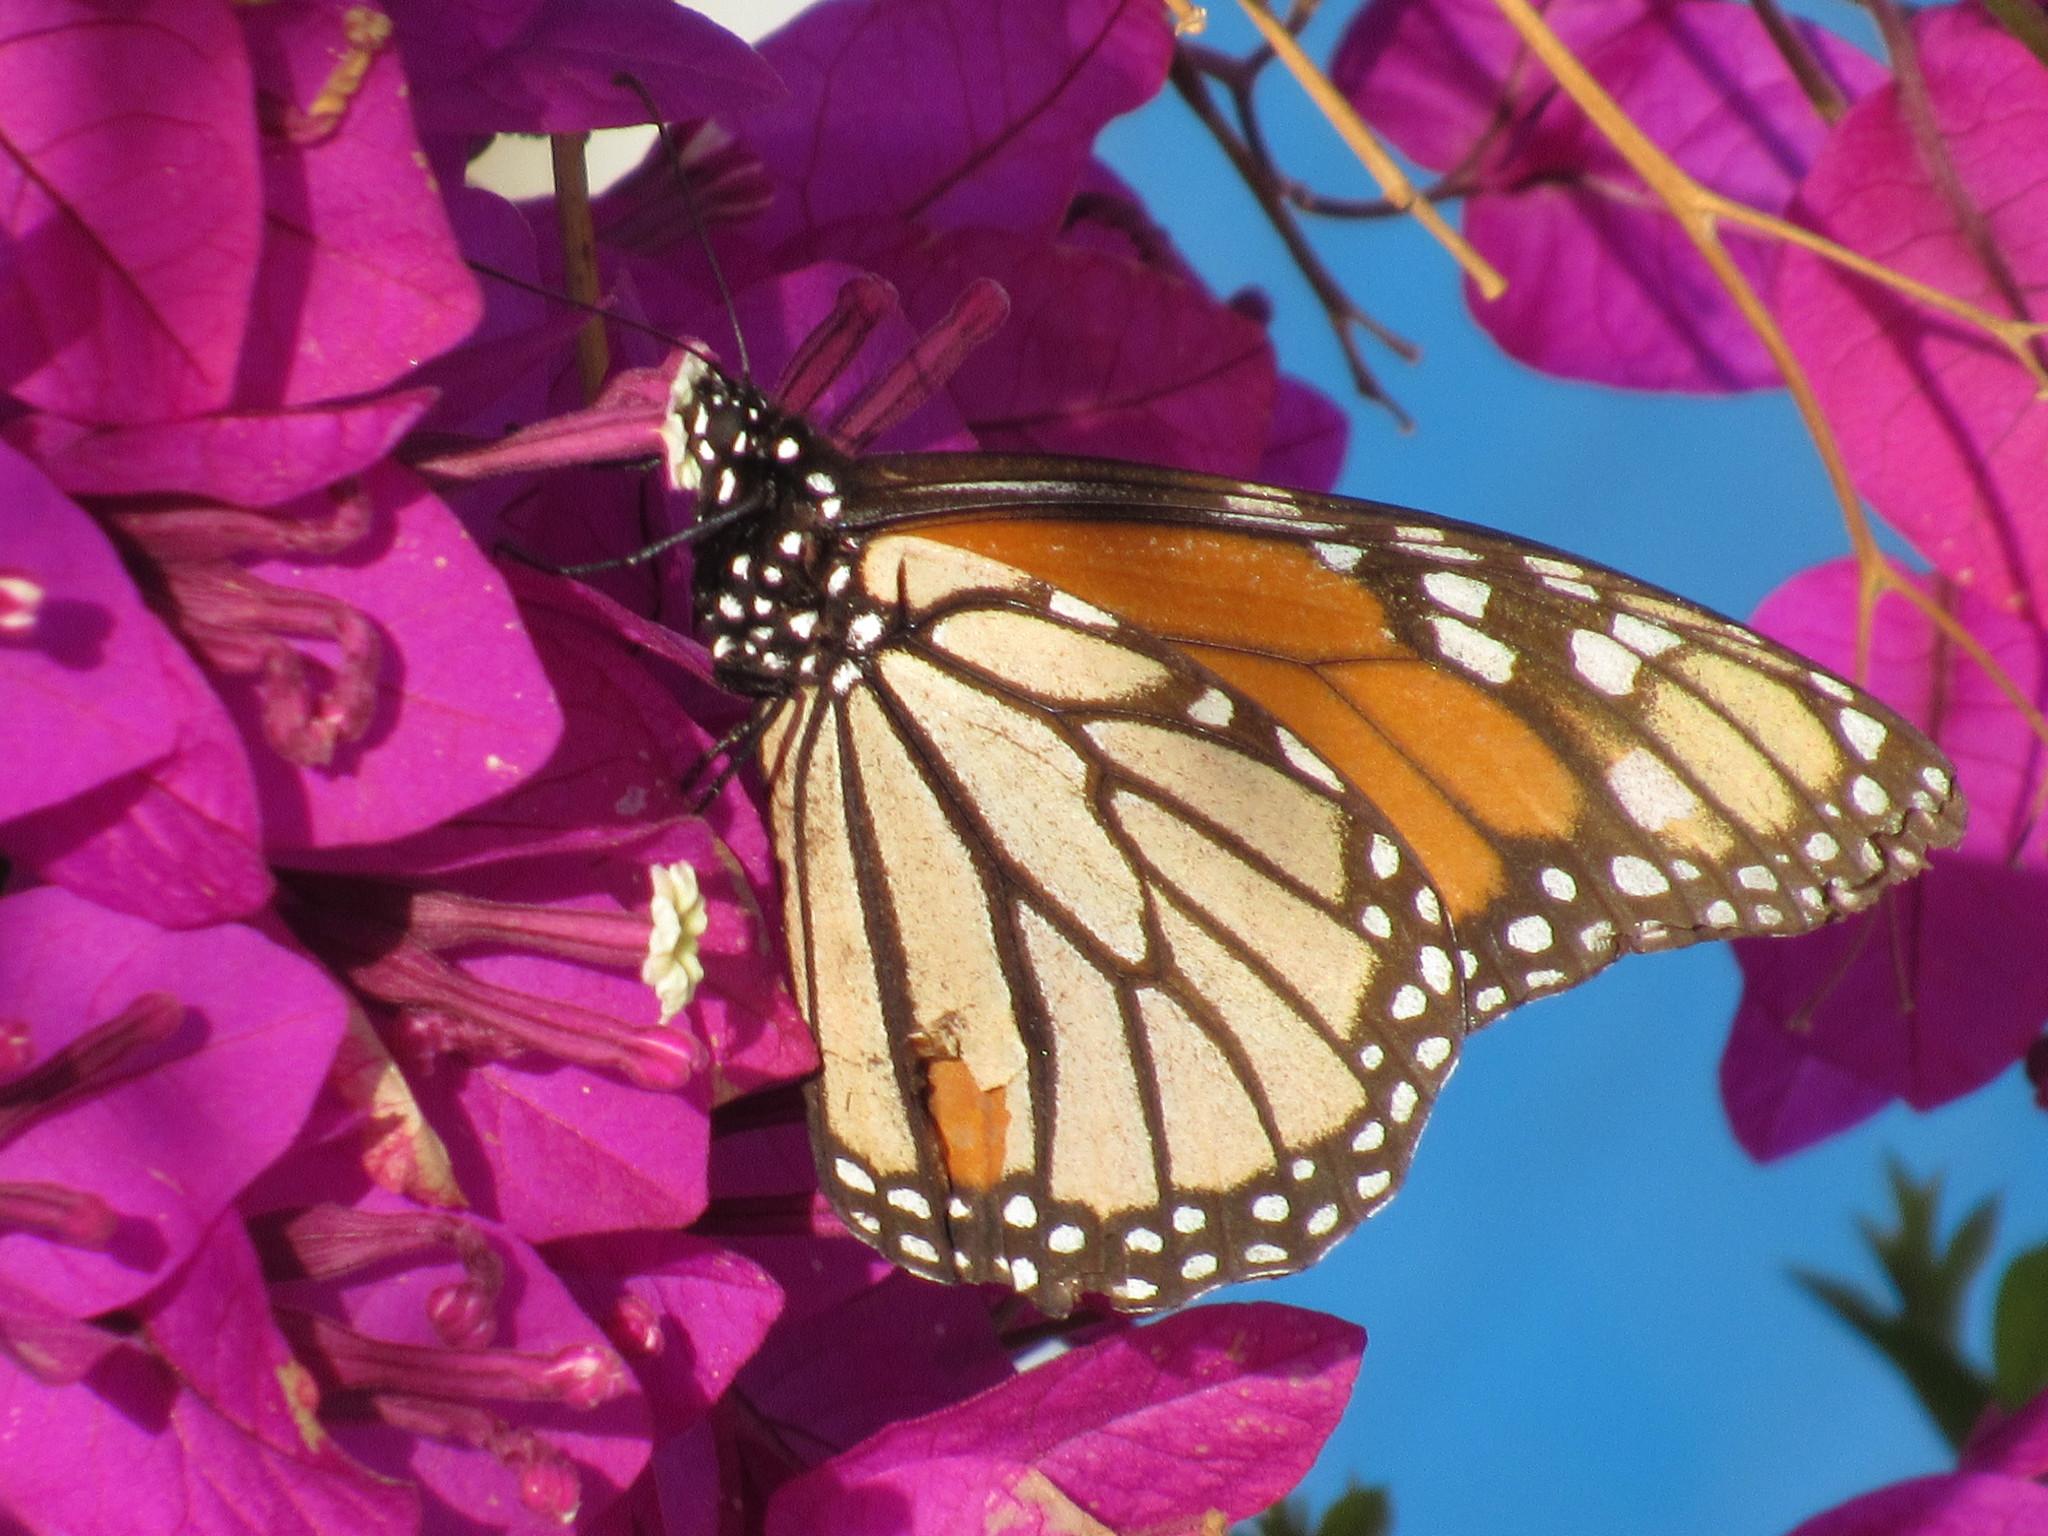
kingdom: Animalia
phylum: Arthropoda
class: Insecta
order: Lepidoptera
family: Nymphalidae
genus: Danaus
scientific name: Danaus plexippus
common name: Monarch
